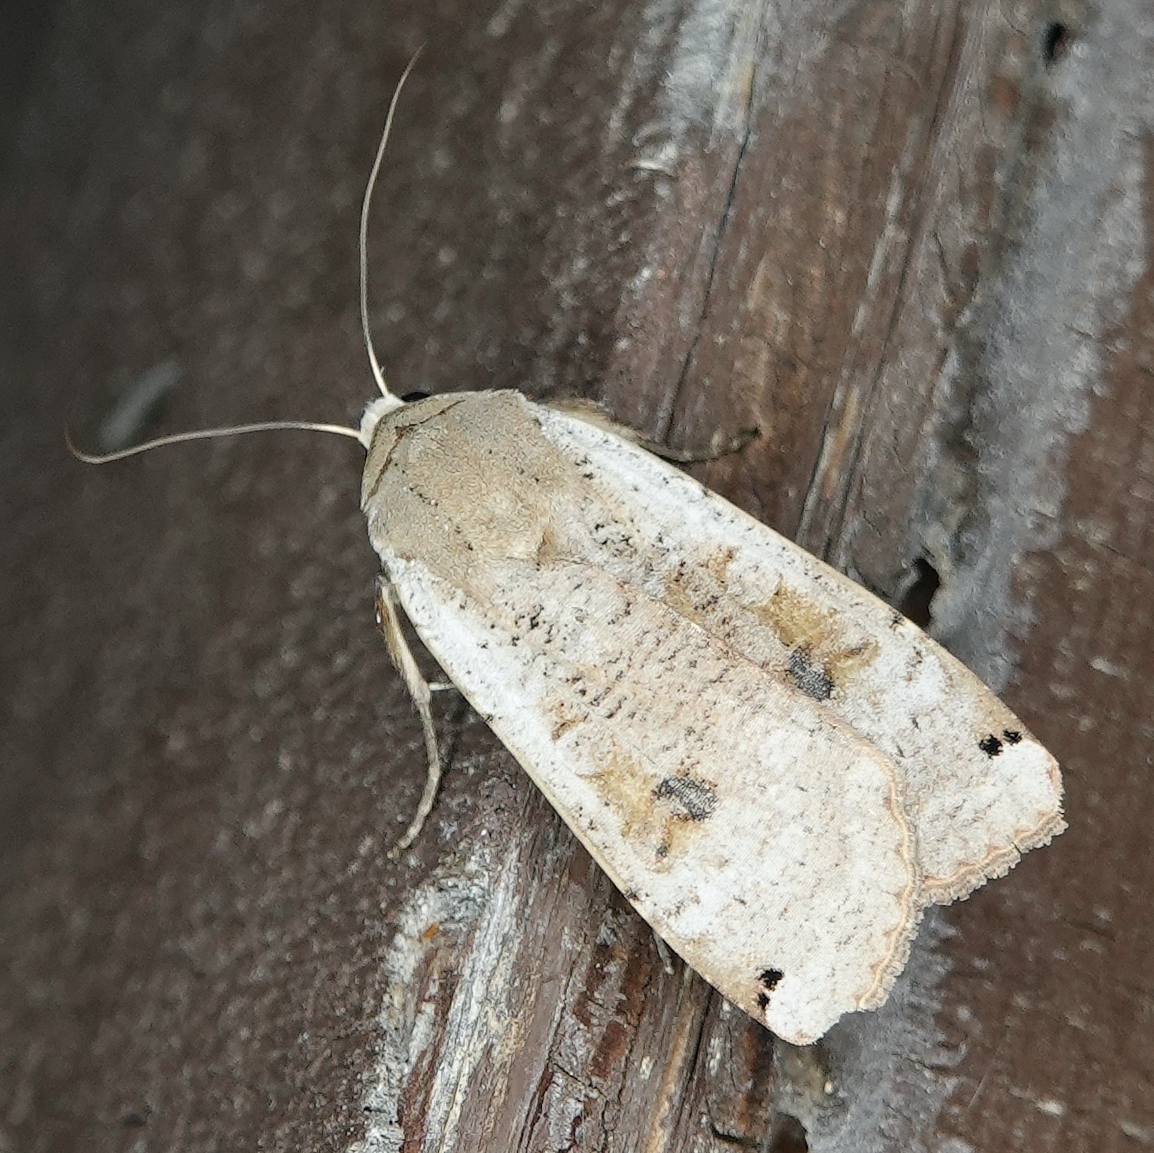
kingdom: Animalia
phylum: Arthropoda
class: Insecta
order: Lepidoptera
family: Noctuidae
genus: Noctua
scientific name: Noctua pronuba
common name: Large yellow underwing
